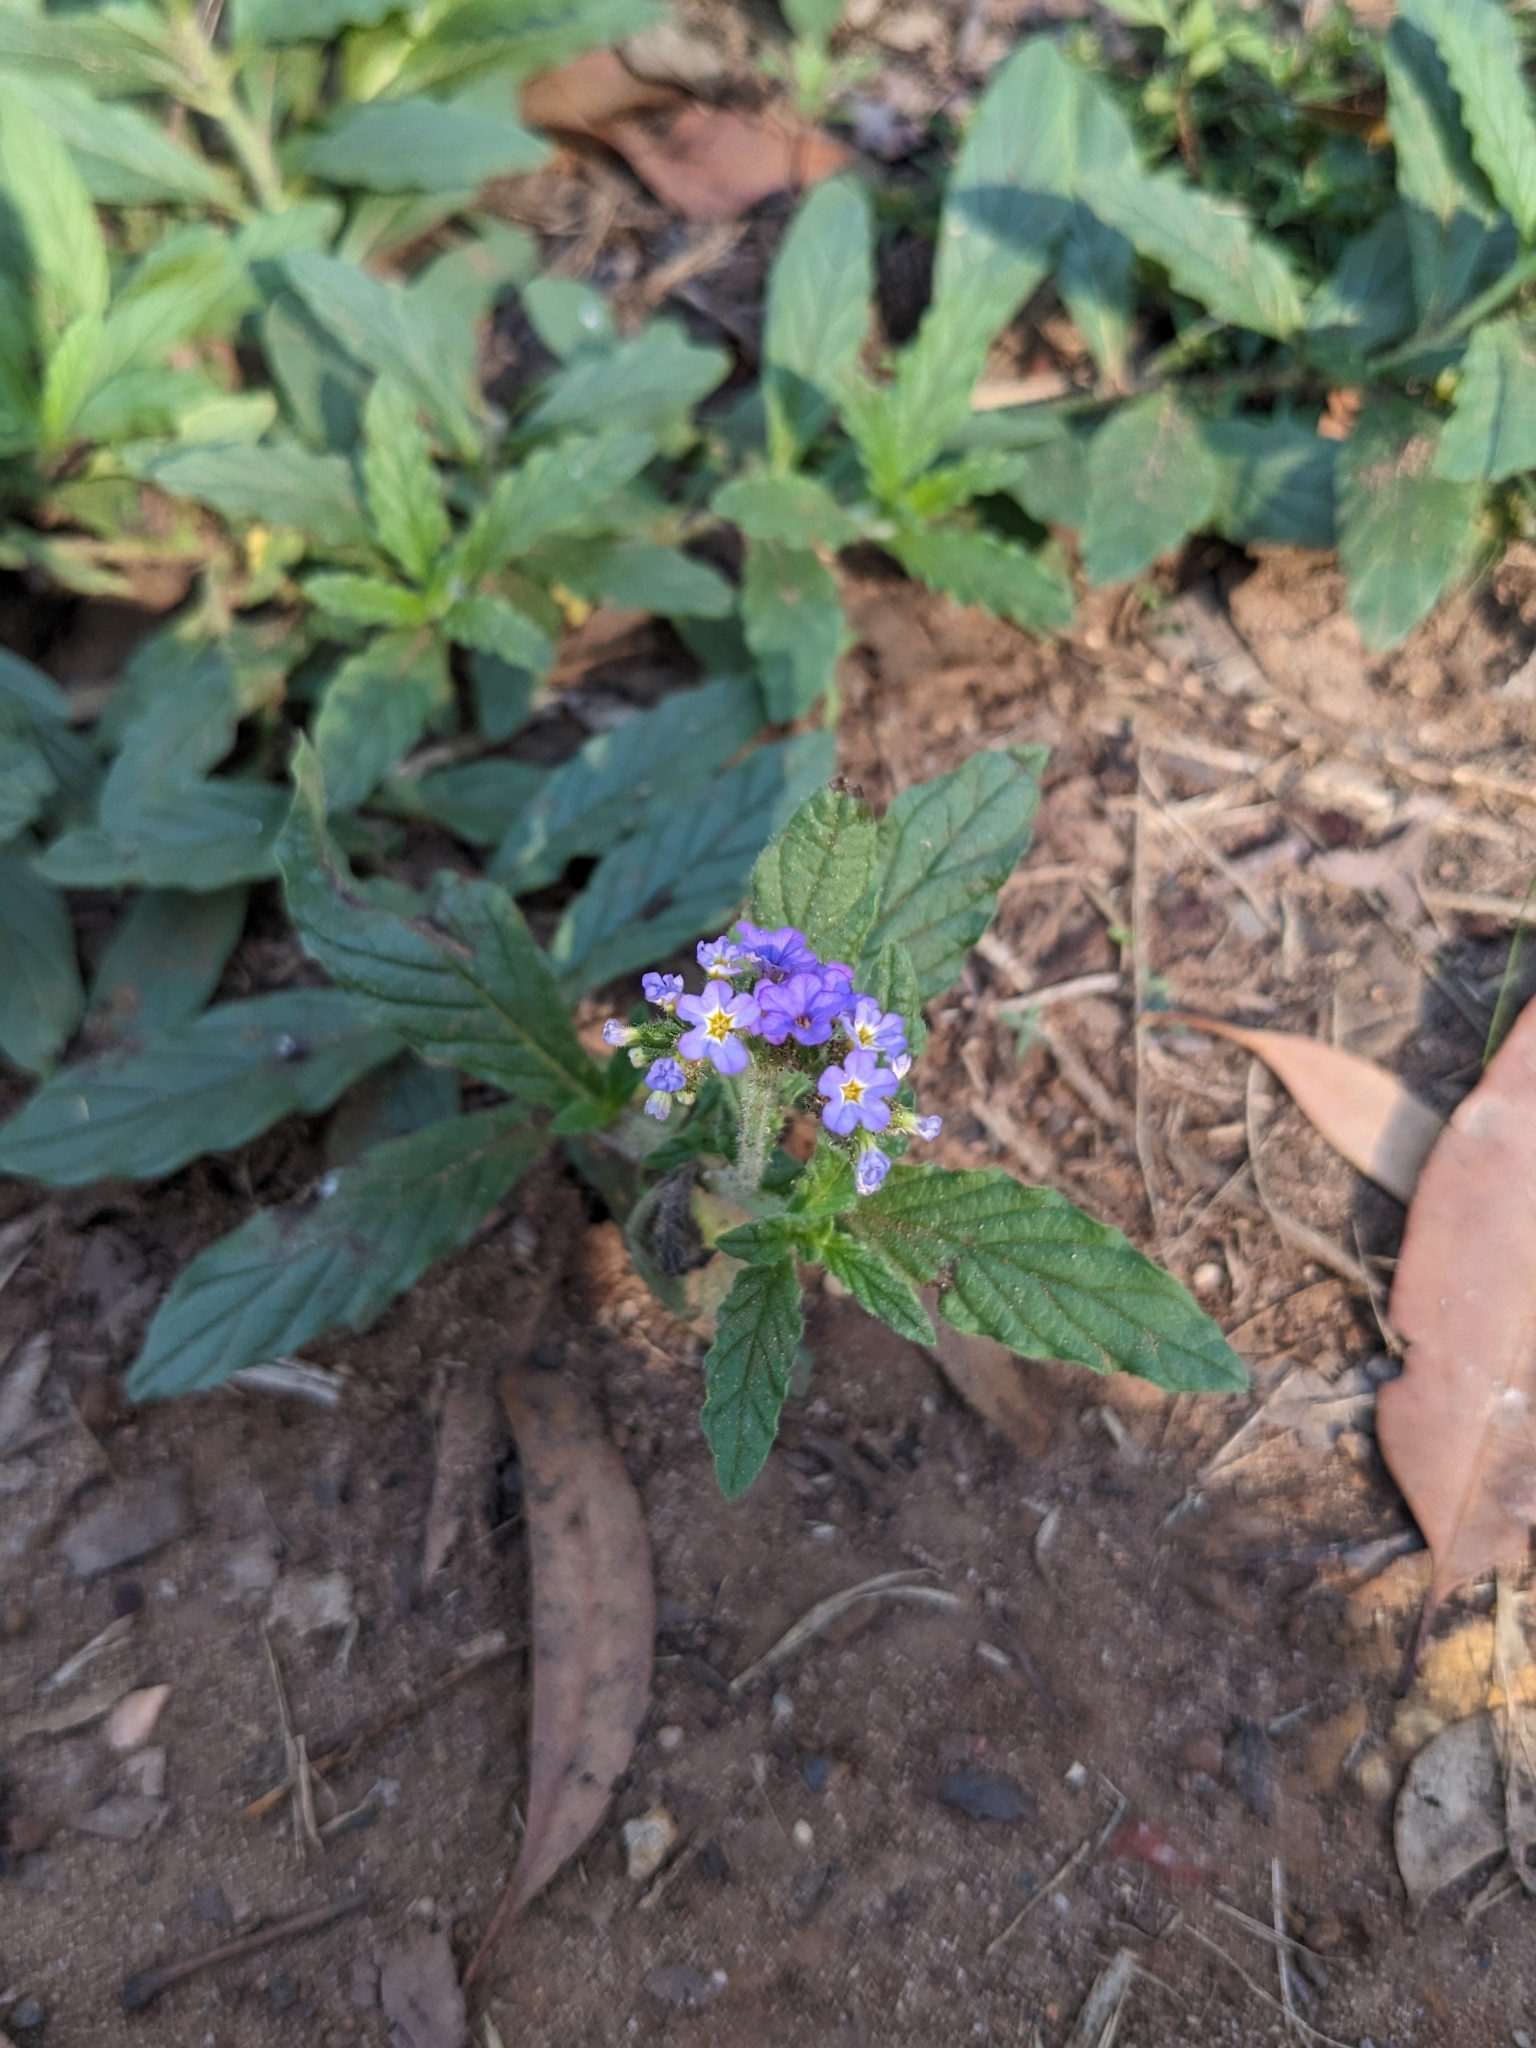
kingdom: Plantae
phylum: Tracheophyta
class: Magnoliopsida
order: Boraginales
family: Heliotropiaceae
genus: Heliotropium
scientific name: Heliotropium amplexicaule
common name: Clasping heliotrope
